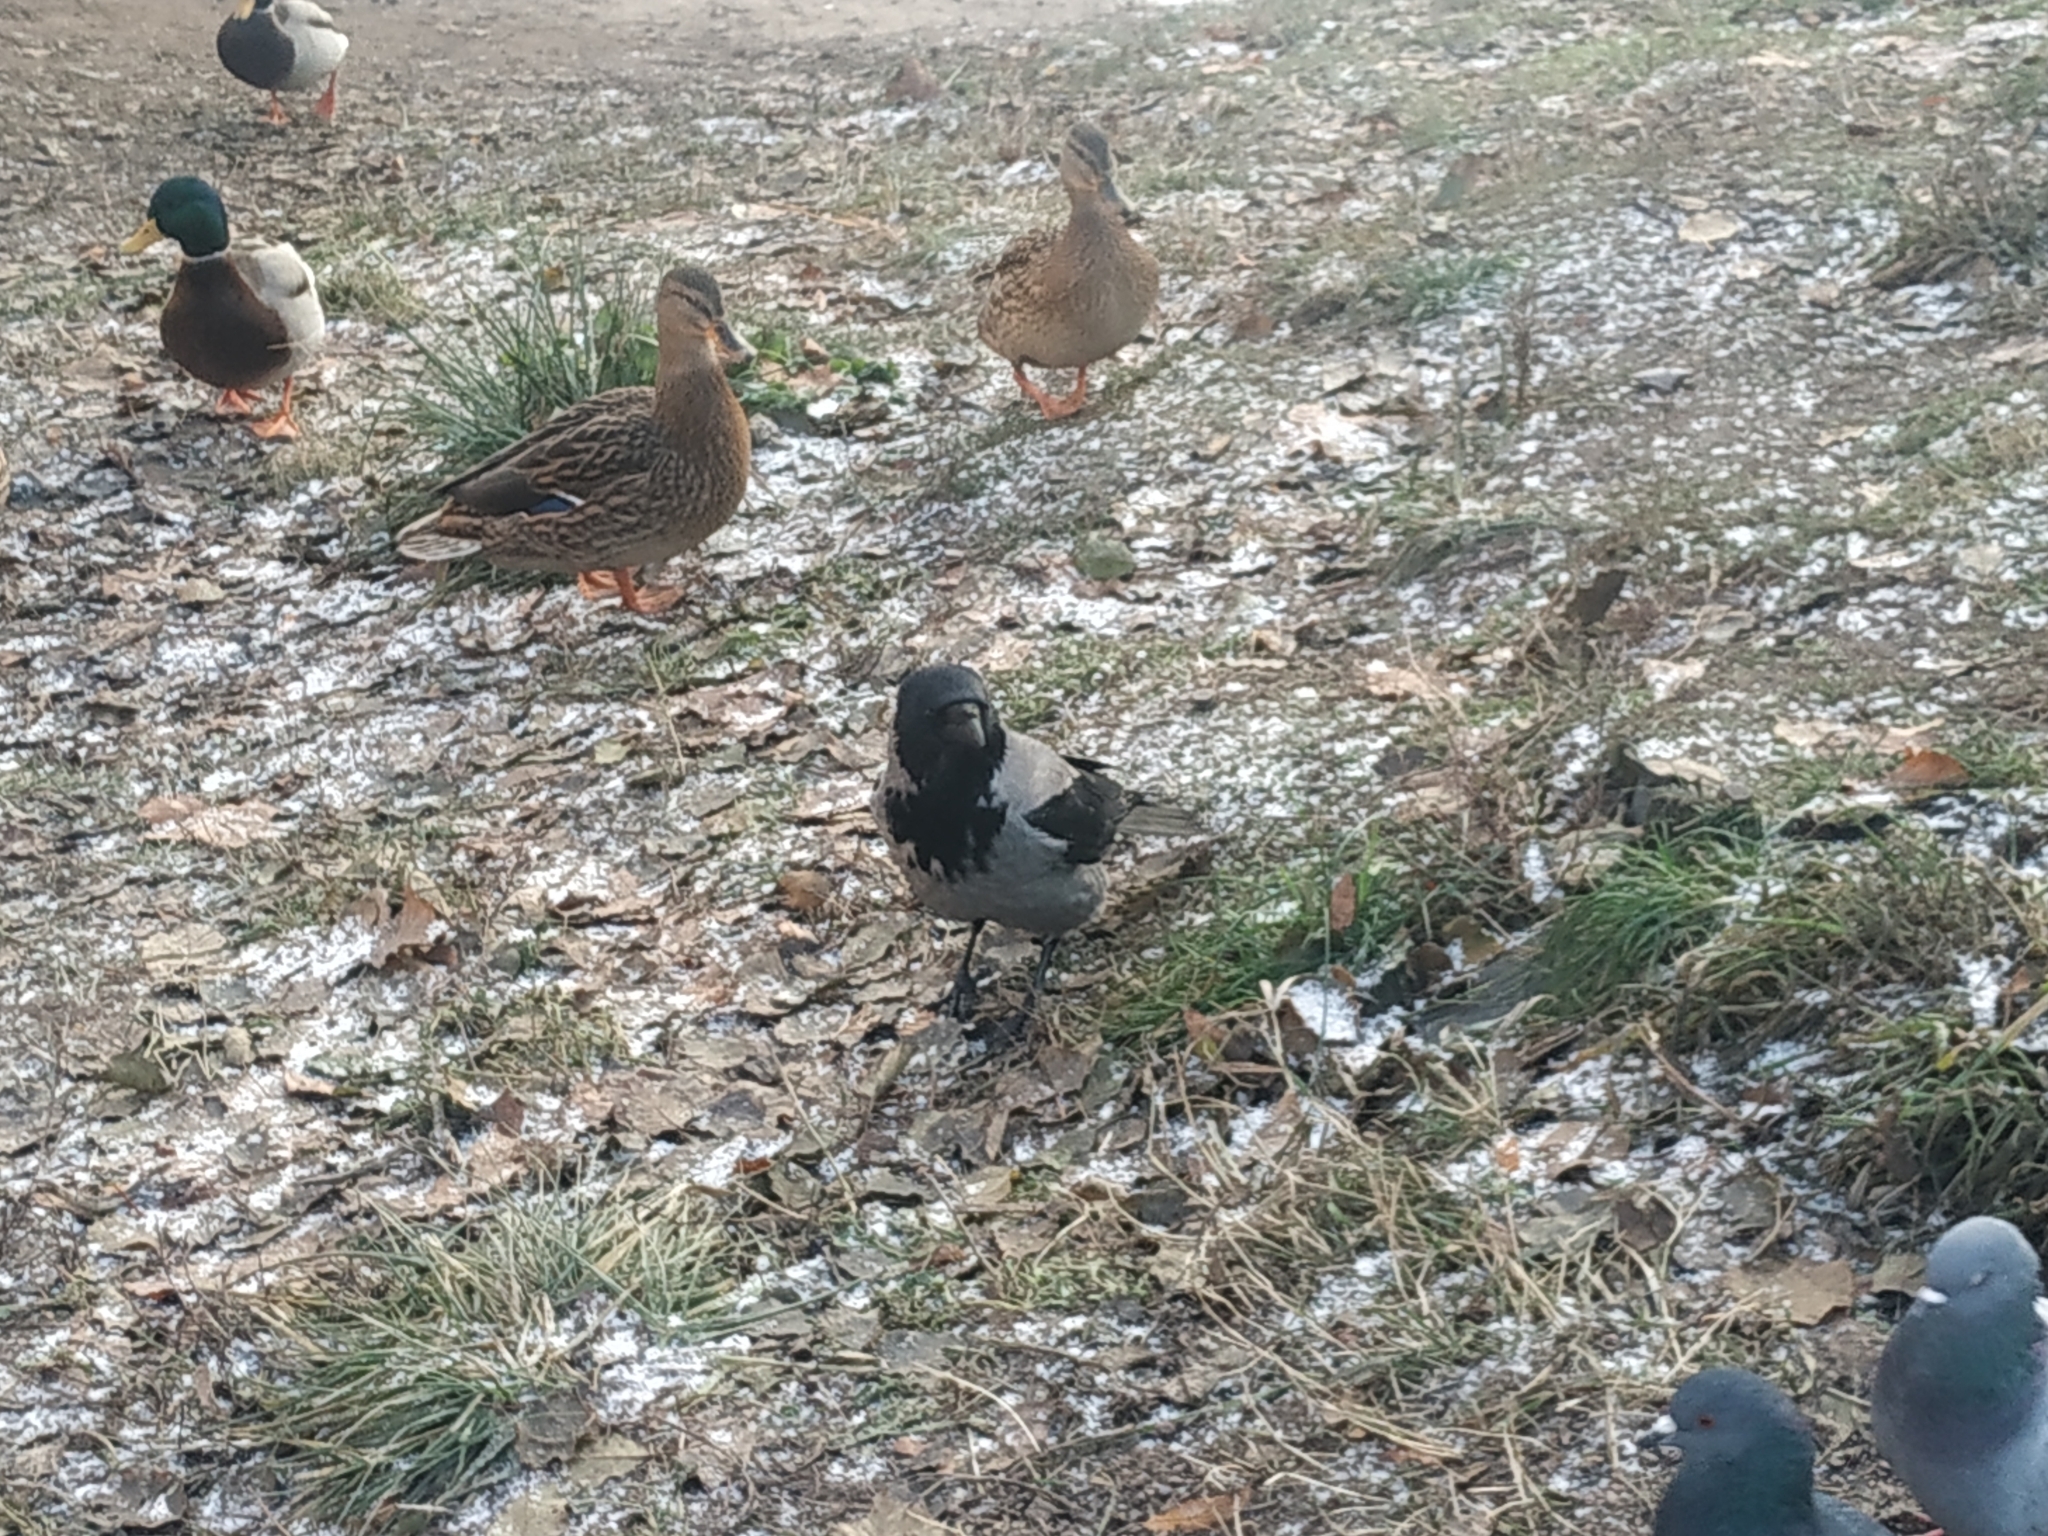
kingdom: Animalia
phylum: Chordata
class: Aves
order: Anseriformes
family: Anatidae
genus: Anas
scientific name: Anas platyrhynchos
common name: Mallard
